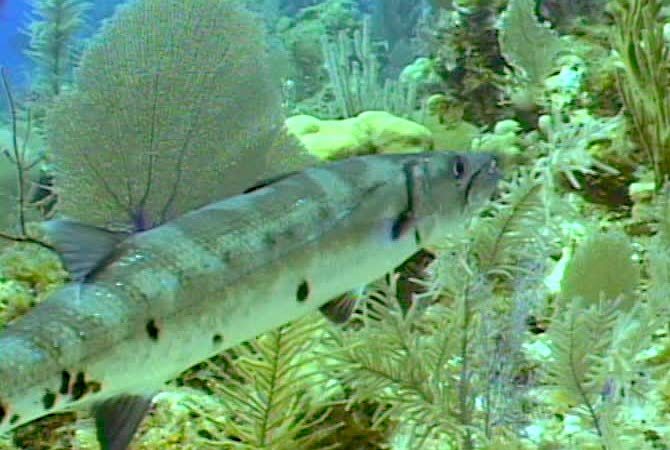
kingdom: Animalia
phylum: Chordata
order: Perciformes
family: Sphyraenidae
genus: Sphyraena
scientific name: Sphyraena barracuda
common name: Great barracuda
